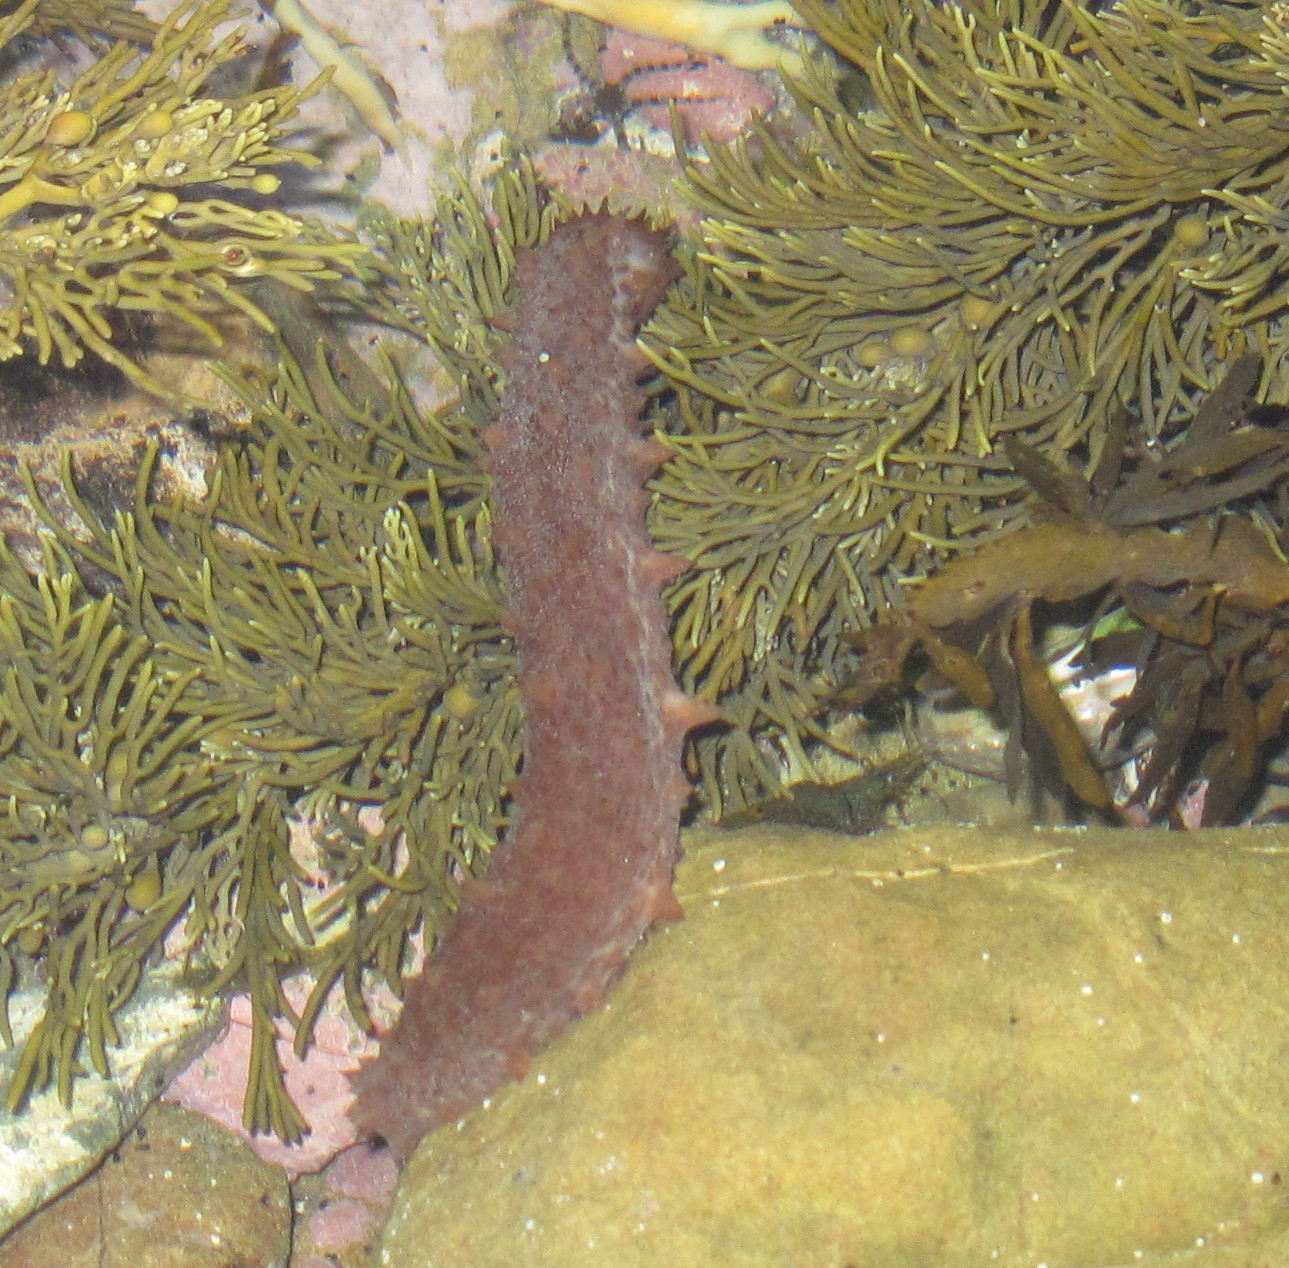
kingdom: Animalia
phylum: Echinodermata
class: Holothuroidea
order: Synallactida
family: Stichopodidae
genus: Australostichopus
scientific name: Australostichopus mollis
